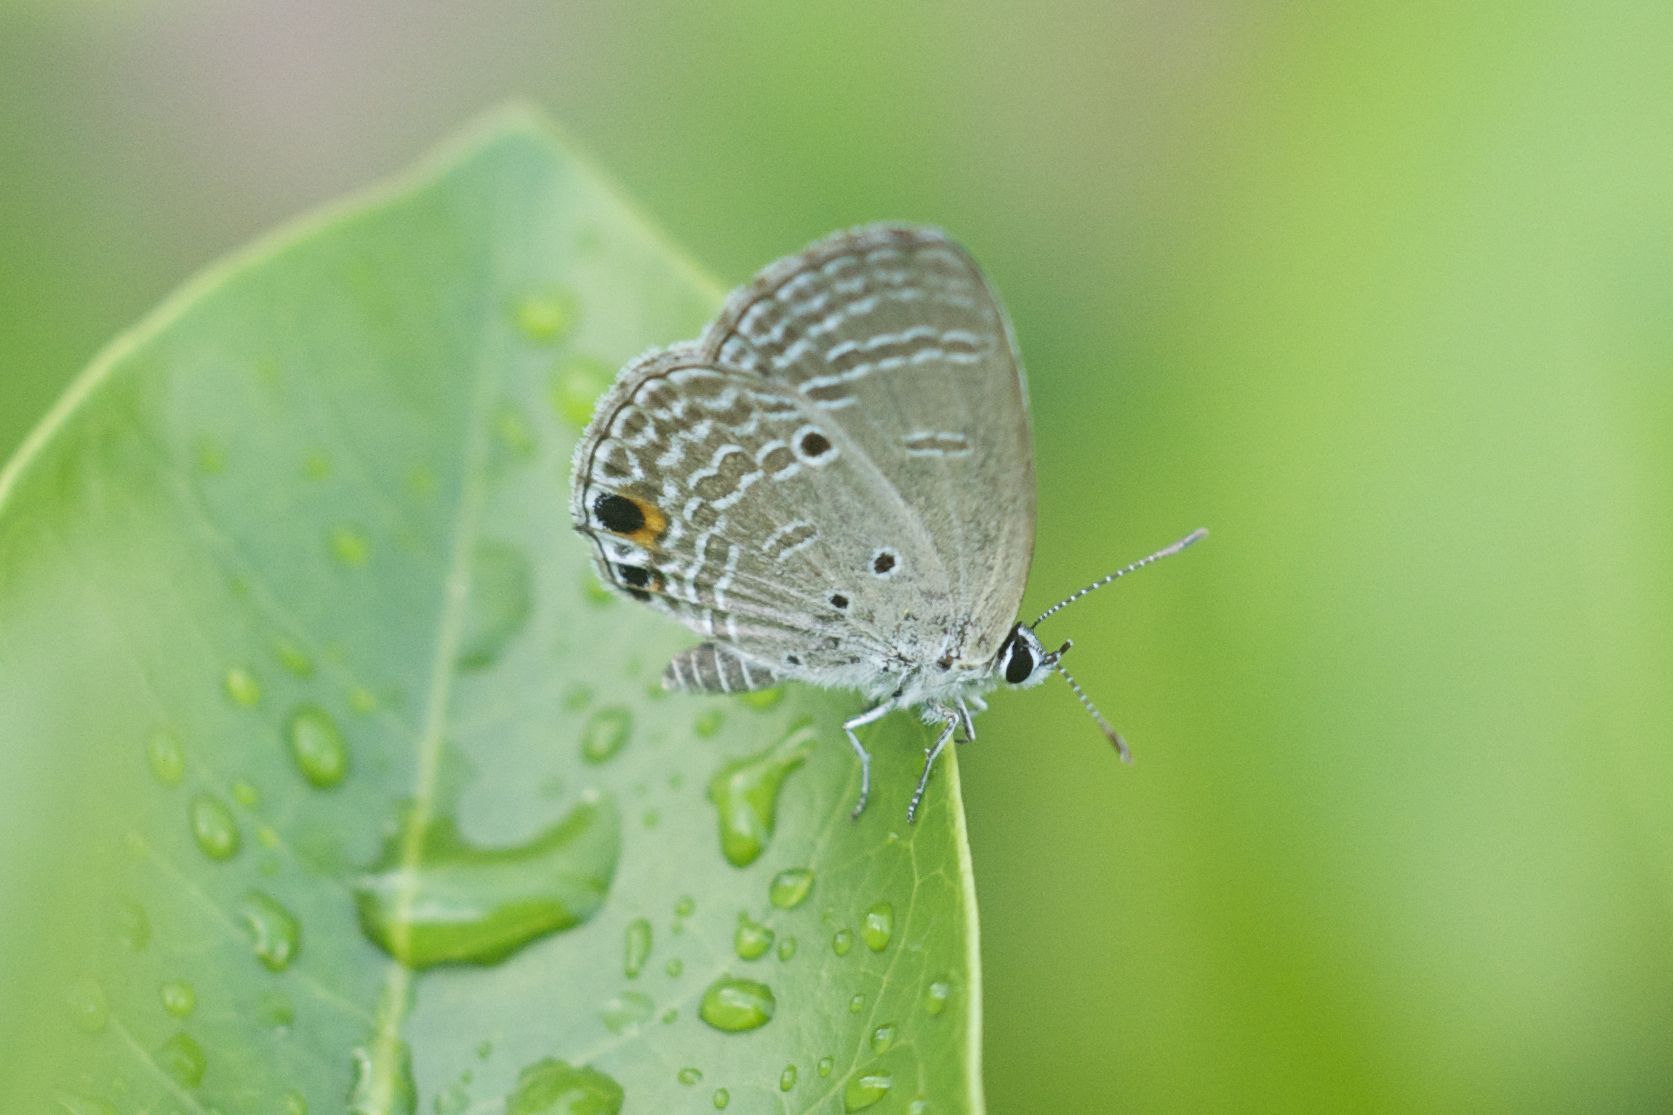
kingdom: Animalia
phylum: Arthropoda
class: Insecta
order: Lepidoptera
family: Lycaenidae
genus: Luthrodes
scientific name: Luthrodes pandava
